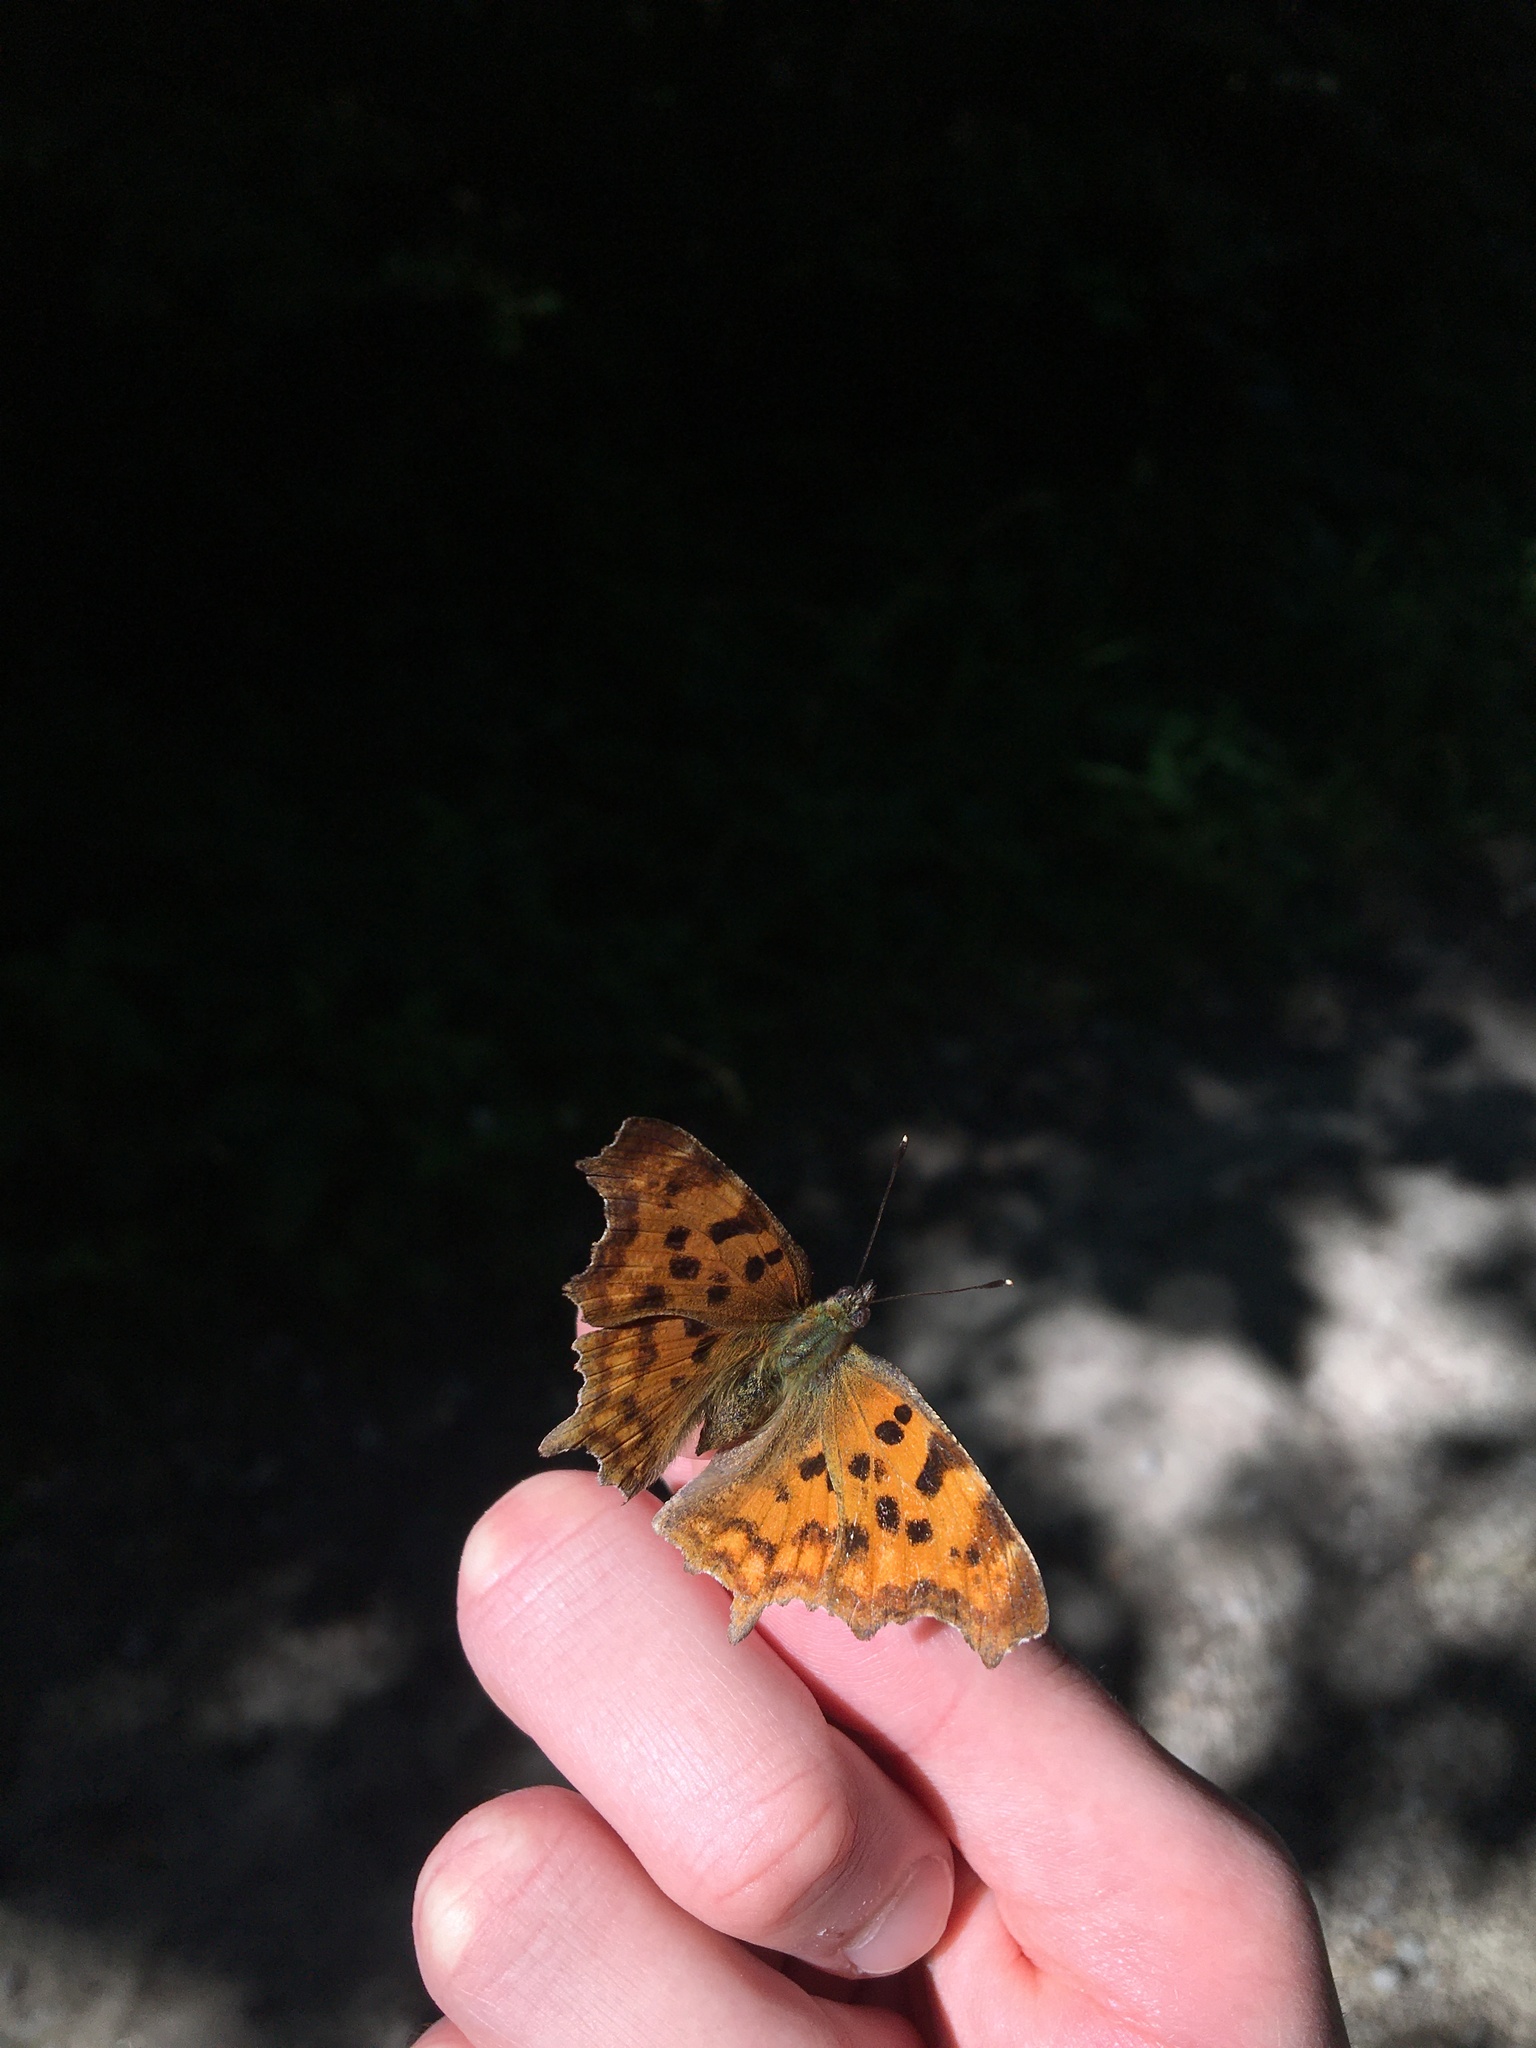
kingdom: Animalia
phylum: Arthropoda
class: Insecta
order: Lepidoptera
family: Nymphalidae
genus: Polygonia
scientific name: Polygonia c-album
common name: Comma
